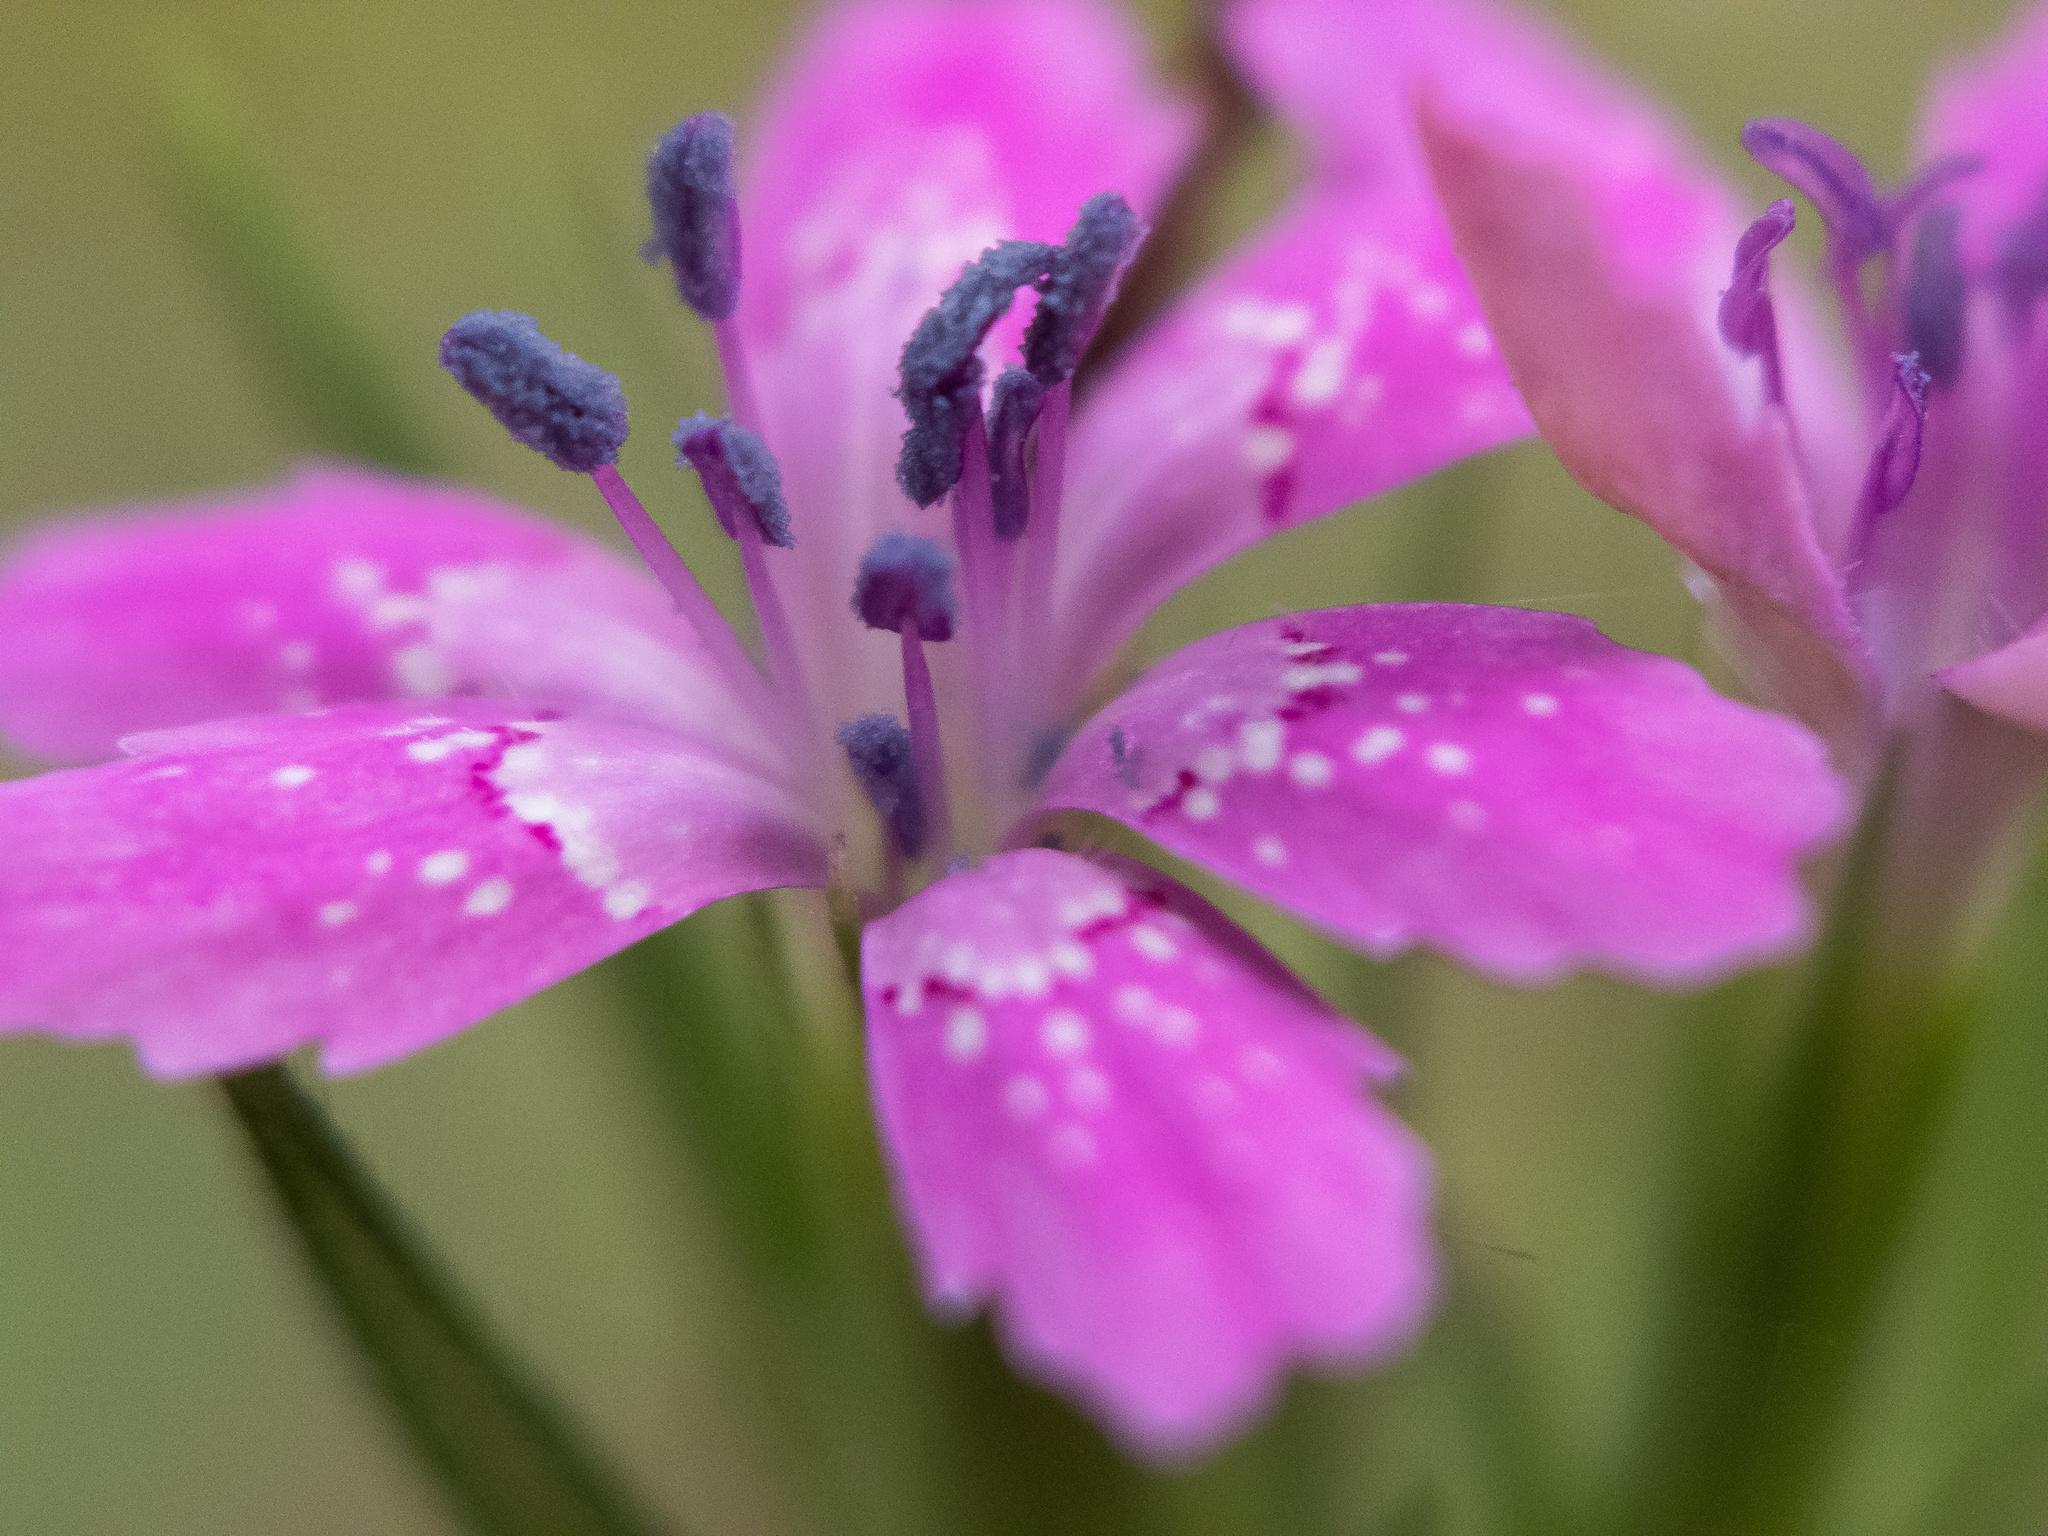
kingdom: Plantae
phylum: Tracheophyta
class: Magnoliopsida
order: Caryophyllales
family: Caryophyllaceae
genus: Dianthus
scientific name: Dianthus armeria
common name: Deptford pink
